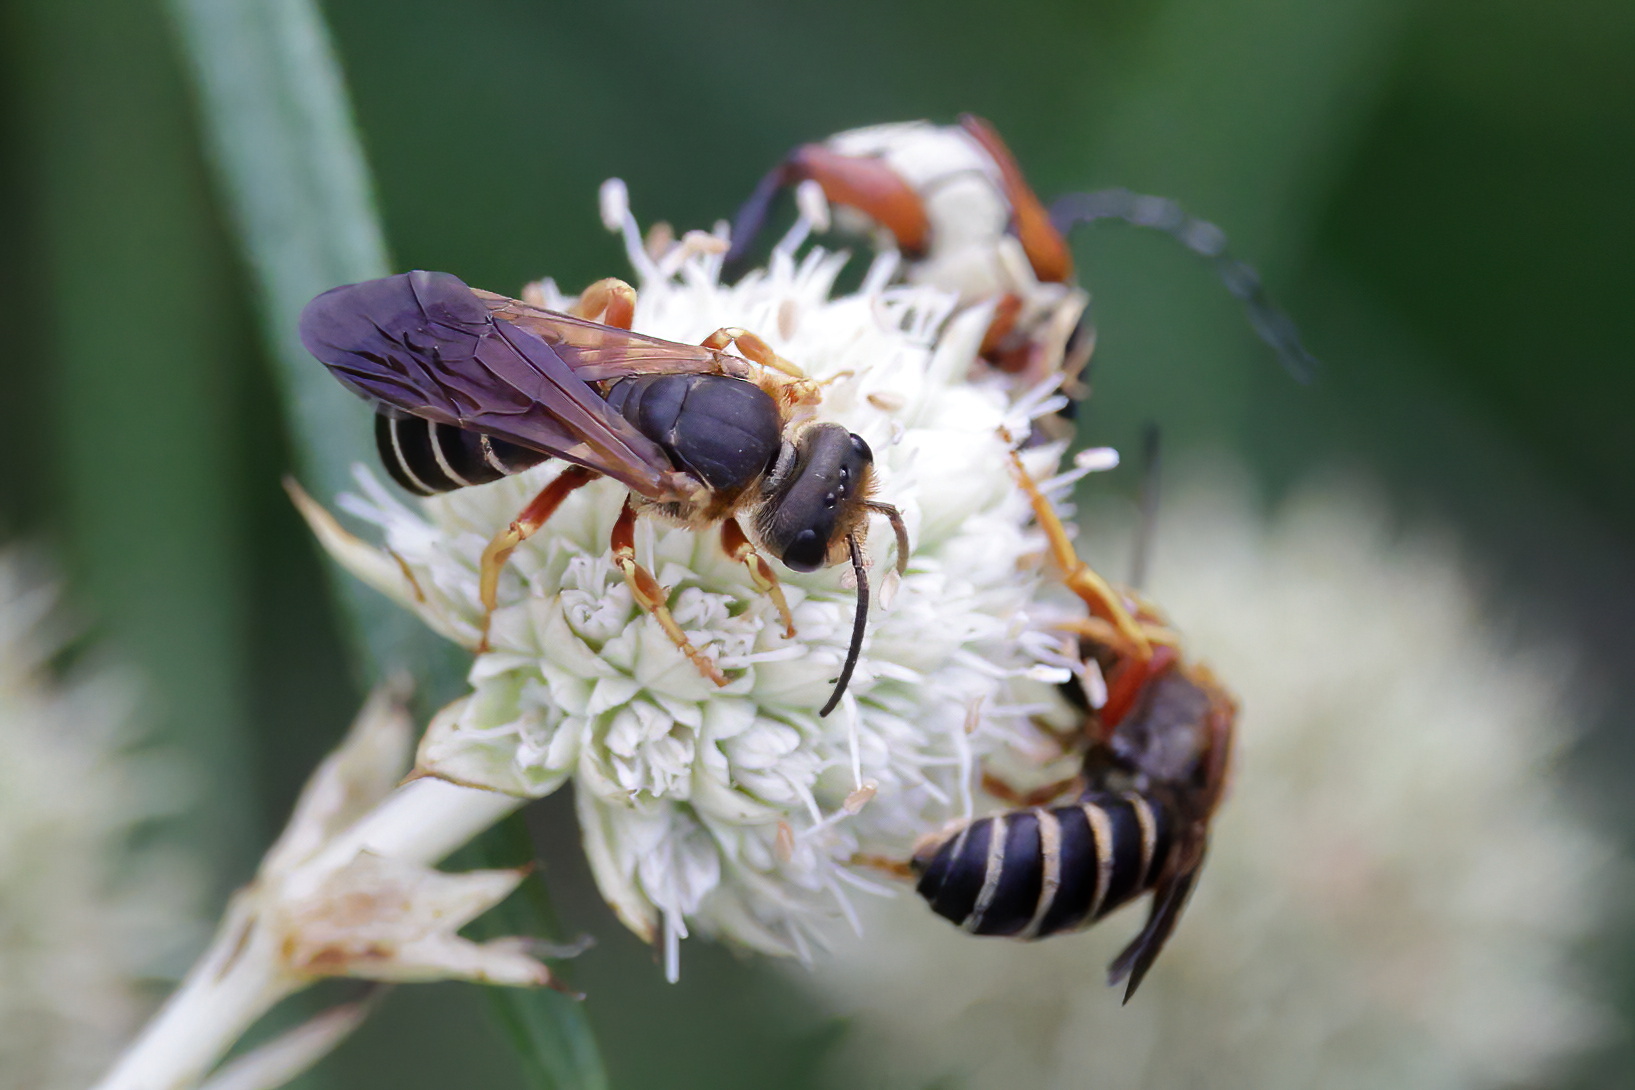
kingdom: Animalia
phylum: Arthropoda
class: Insecta
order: Hymenoptera
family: Halictidae
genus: Halictus
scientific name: Halictus parallelus
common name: Parallel-striped sweat bee
